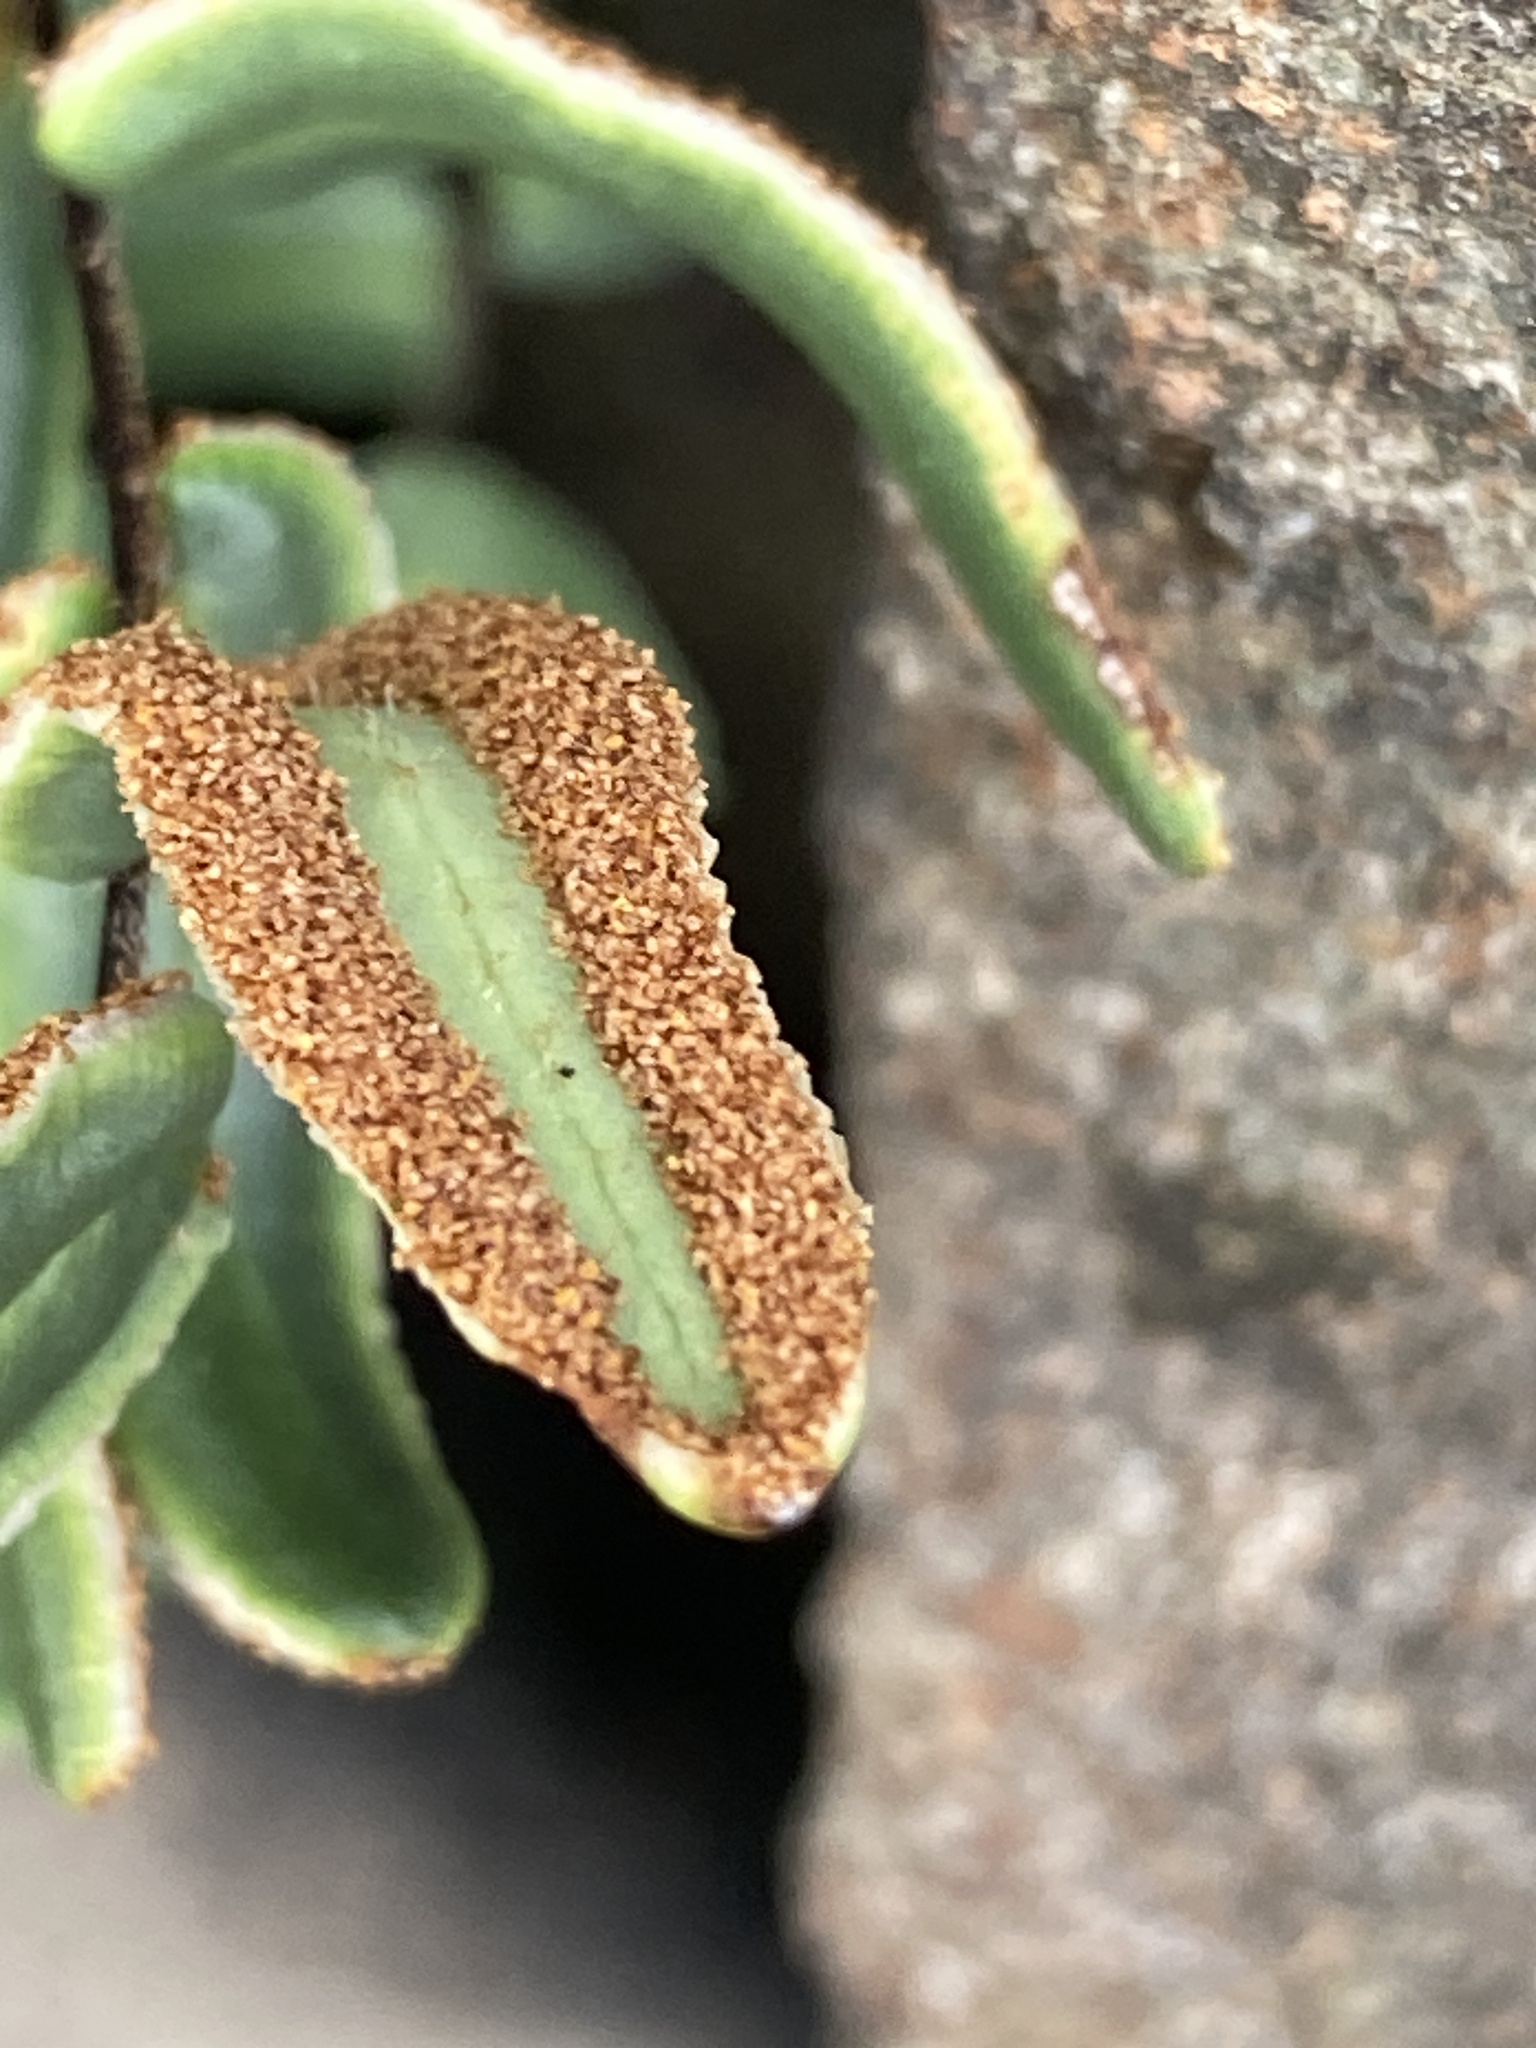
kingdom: Plantae
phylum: Tracheophyta
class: Polypodiopsida
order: Polypodiales
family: Pteridaceae
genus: Pellaea
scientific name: Pellaea atropurpurea
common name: Hairy cliffbrake
